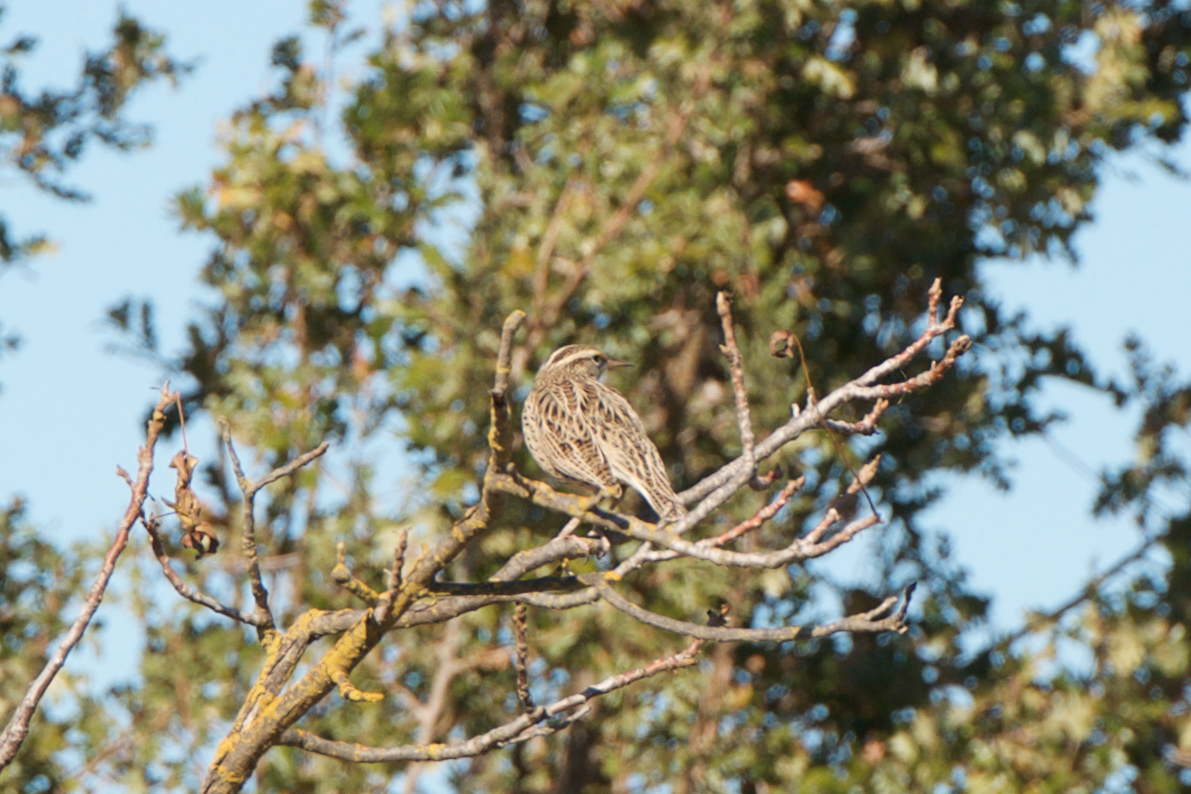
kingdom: Animalia
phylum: Chordata
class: Aves
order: Passeriformes
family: Icteridae
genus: Sturnella
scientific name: Sturnella neglecta
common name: Western meadowlark
